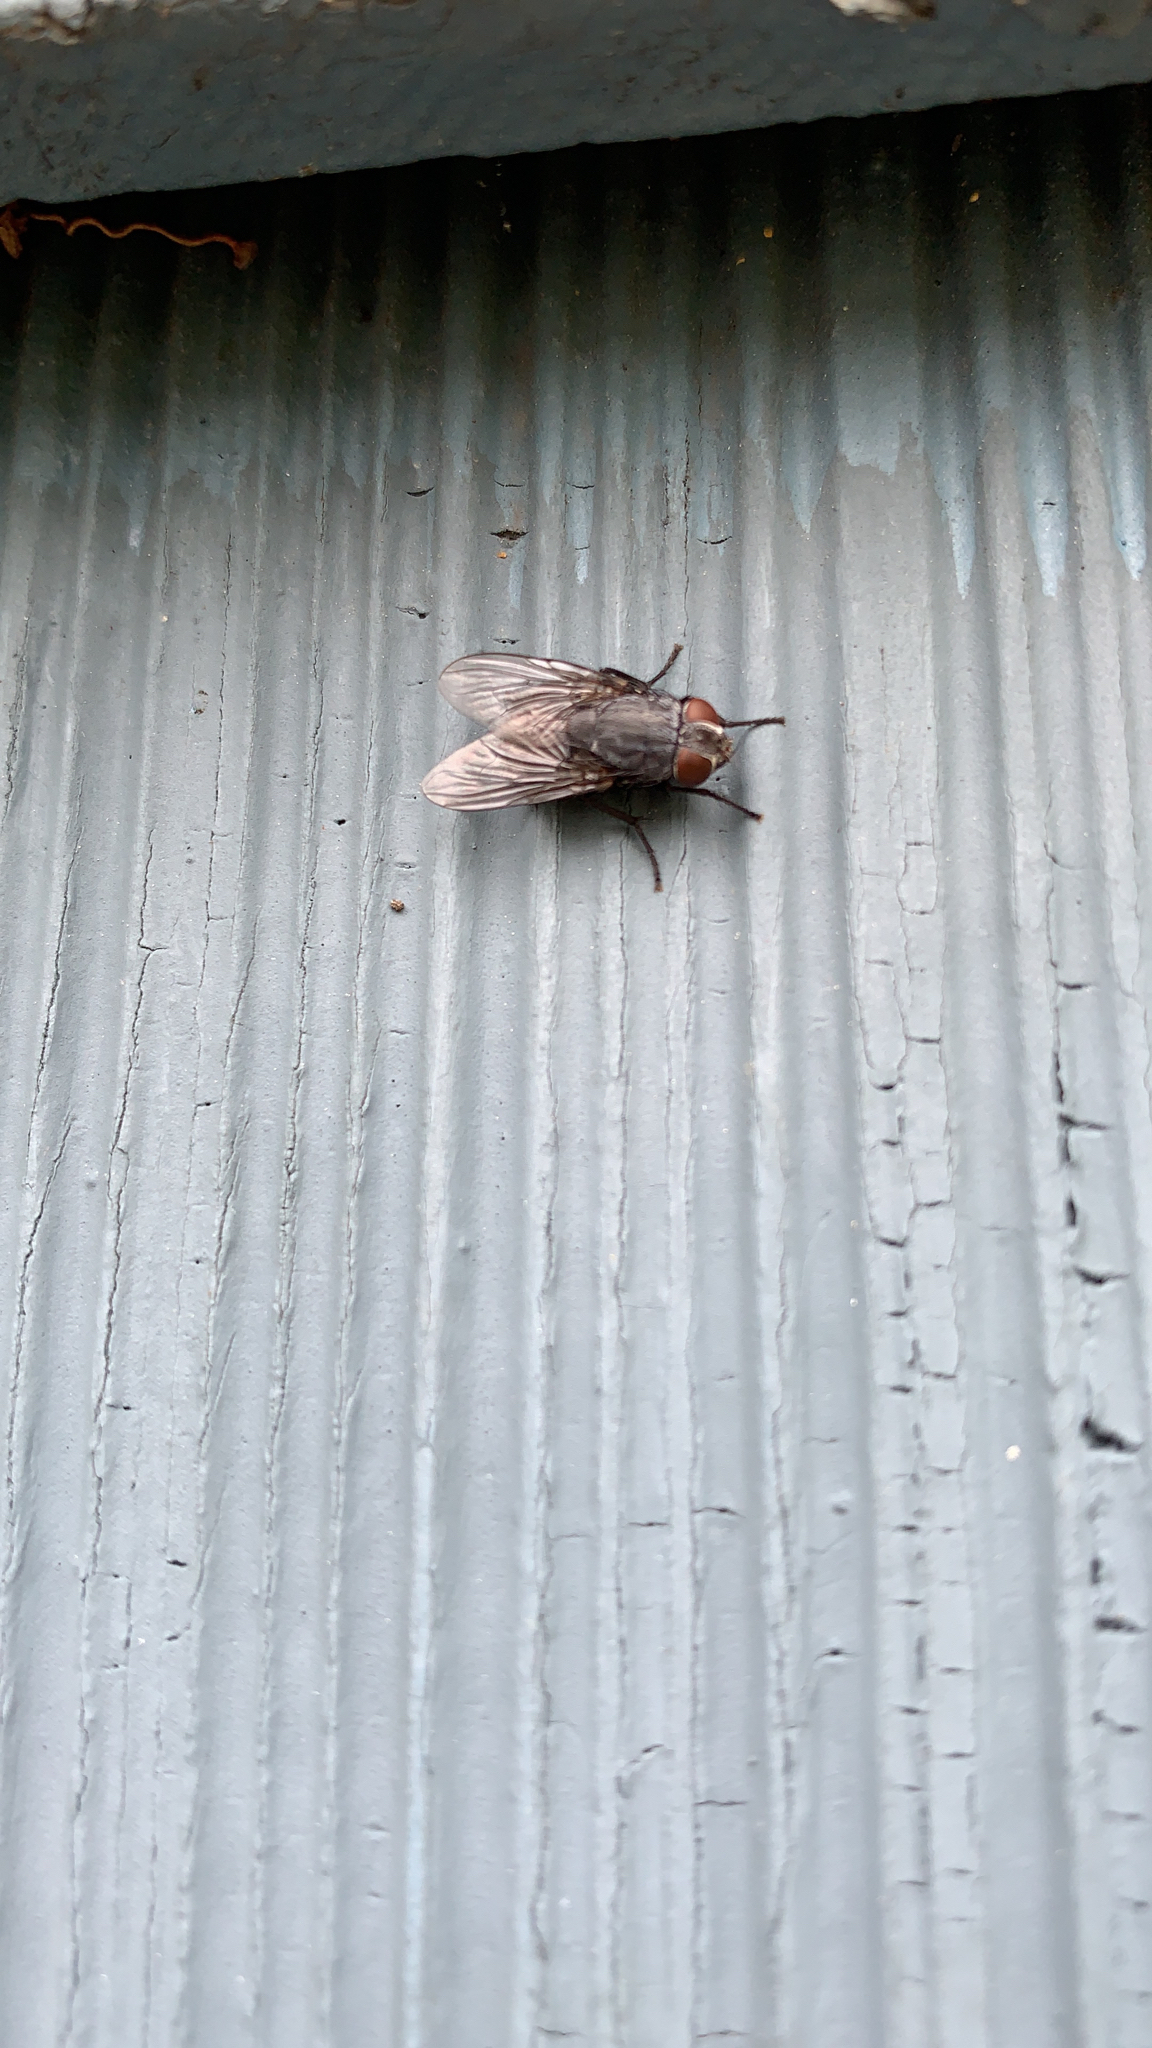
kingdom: Animalia
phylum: Arthropoda
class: Insecta
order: Diptera
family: Muscidae
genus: Muscina
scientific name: Muscina
